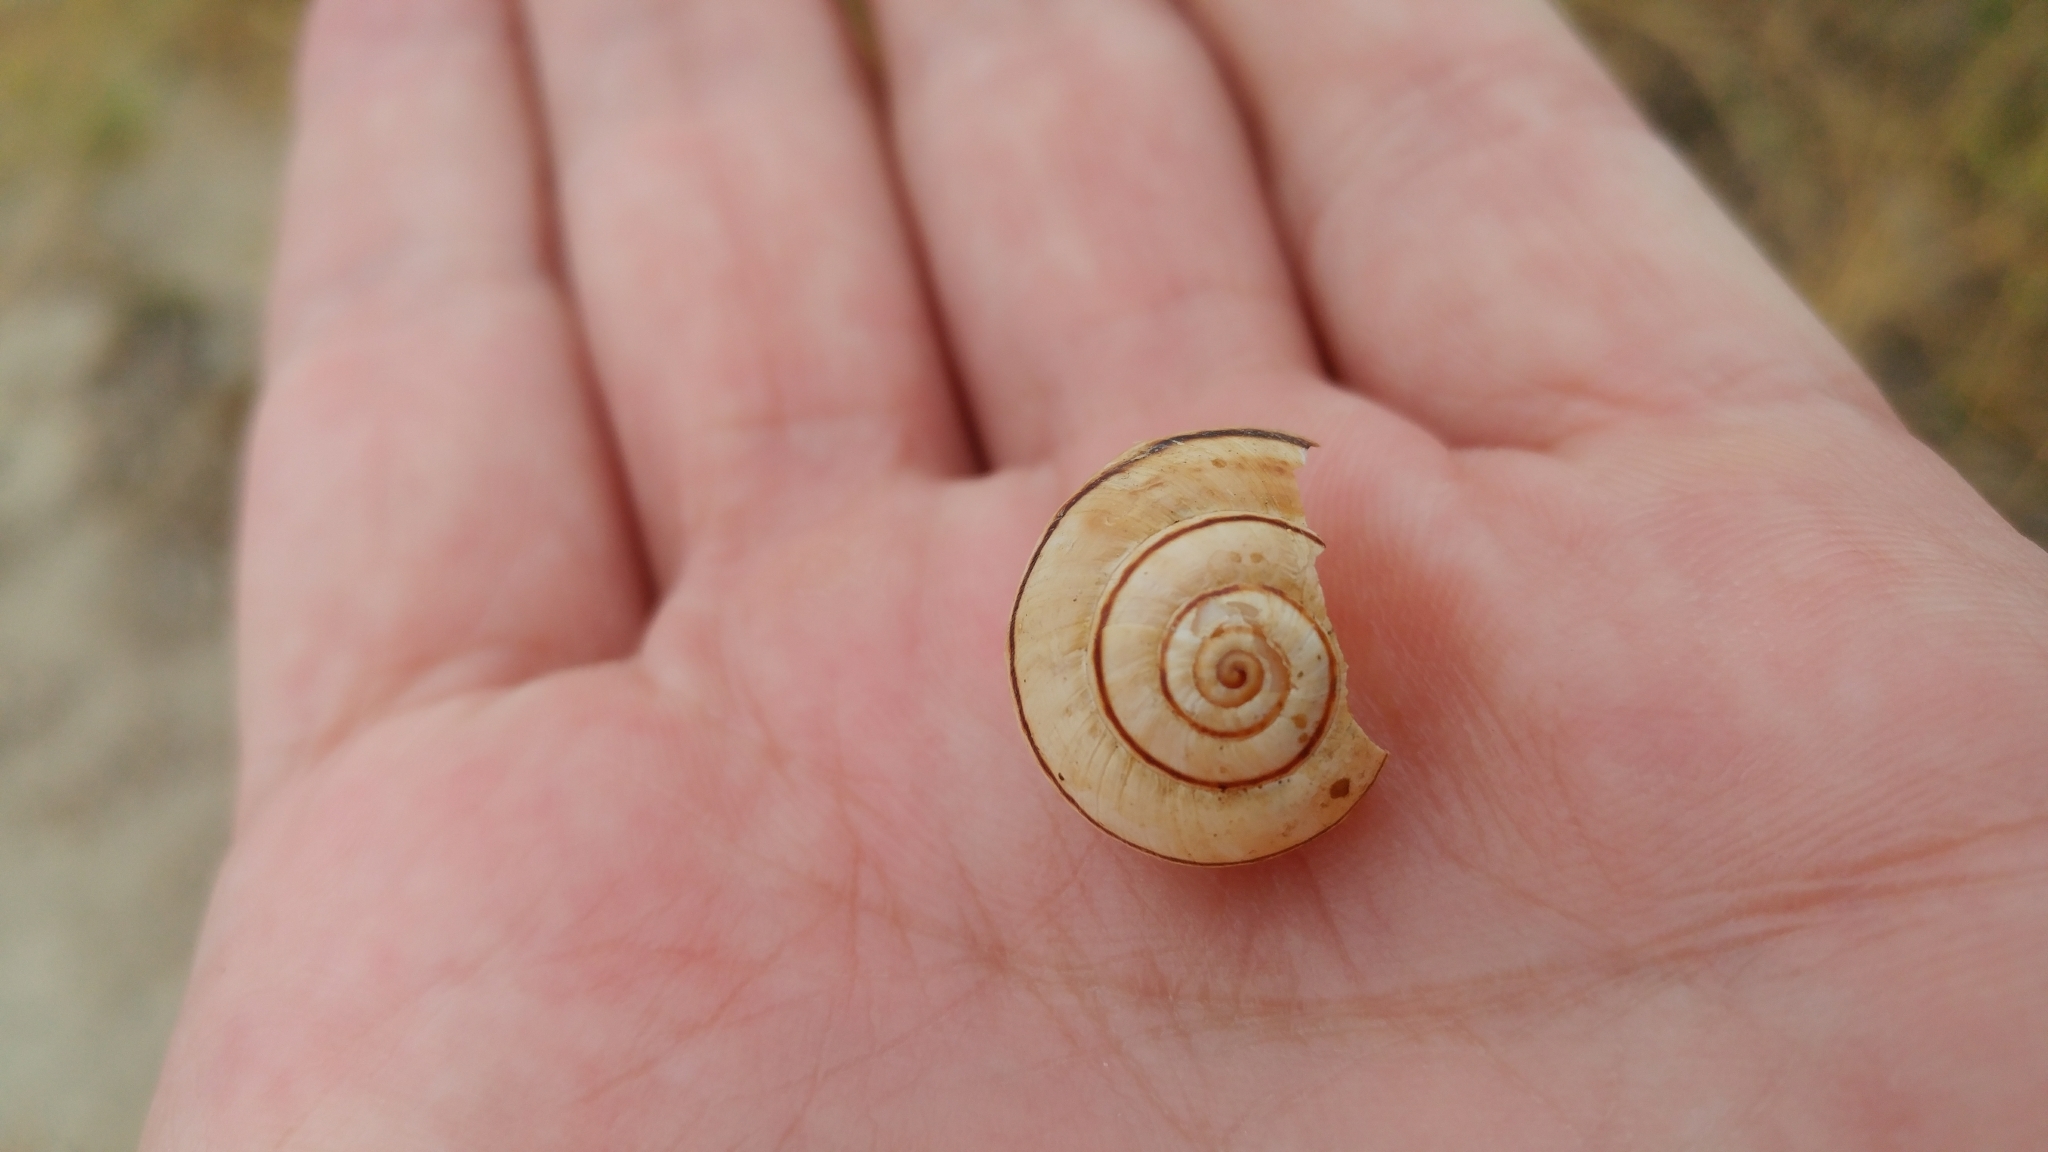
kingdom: Animalia
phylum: Mollusca
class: Gastropoda
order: Stylommatophora
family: Helicidae
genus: Theba
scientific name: Theba pisana
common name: White snail
